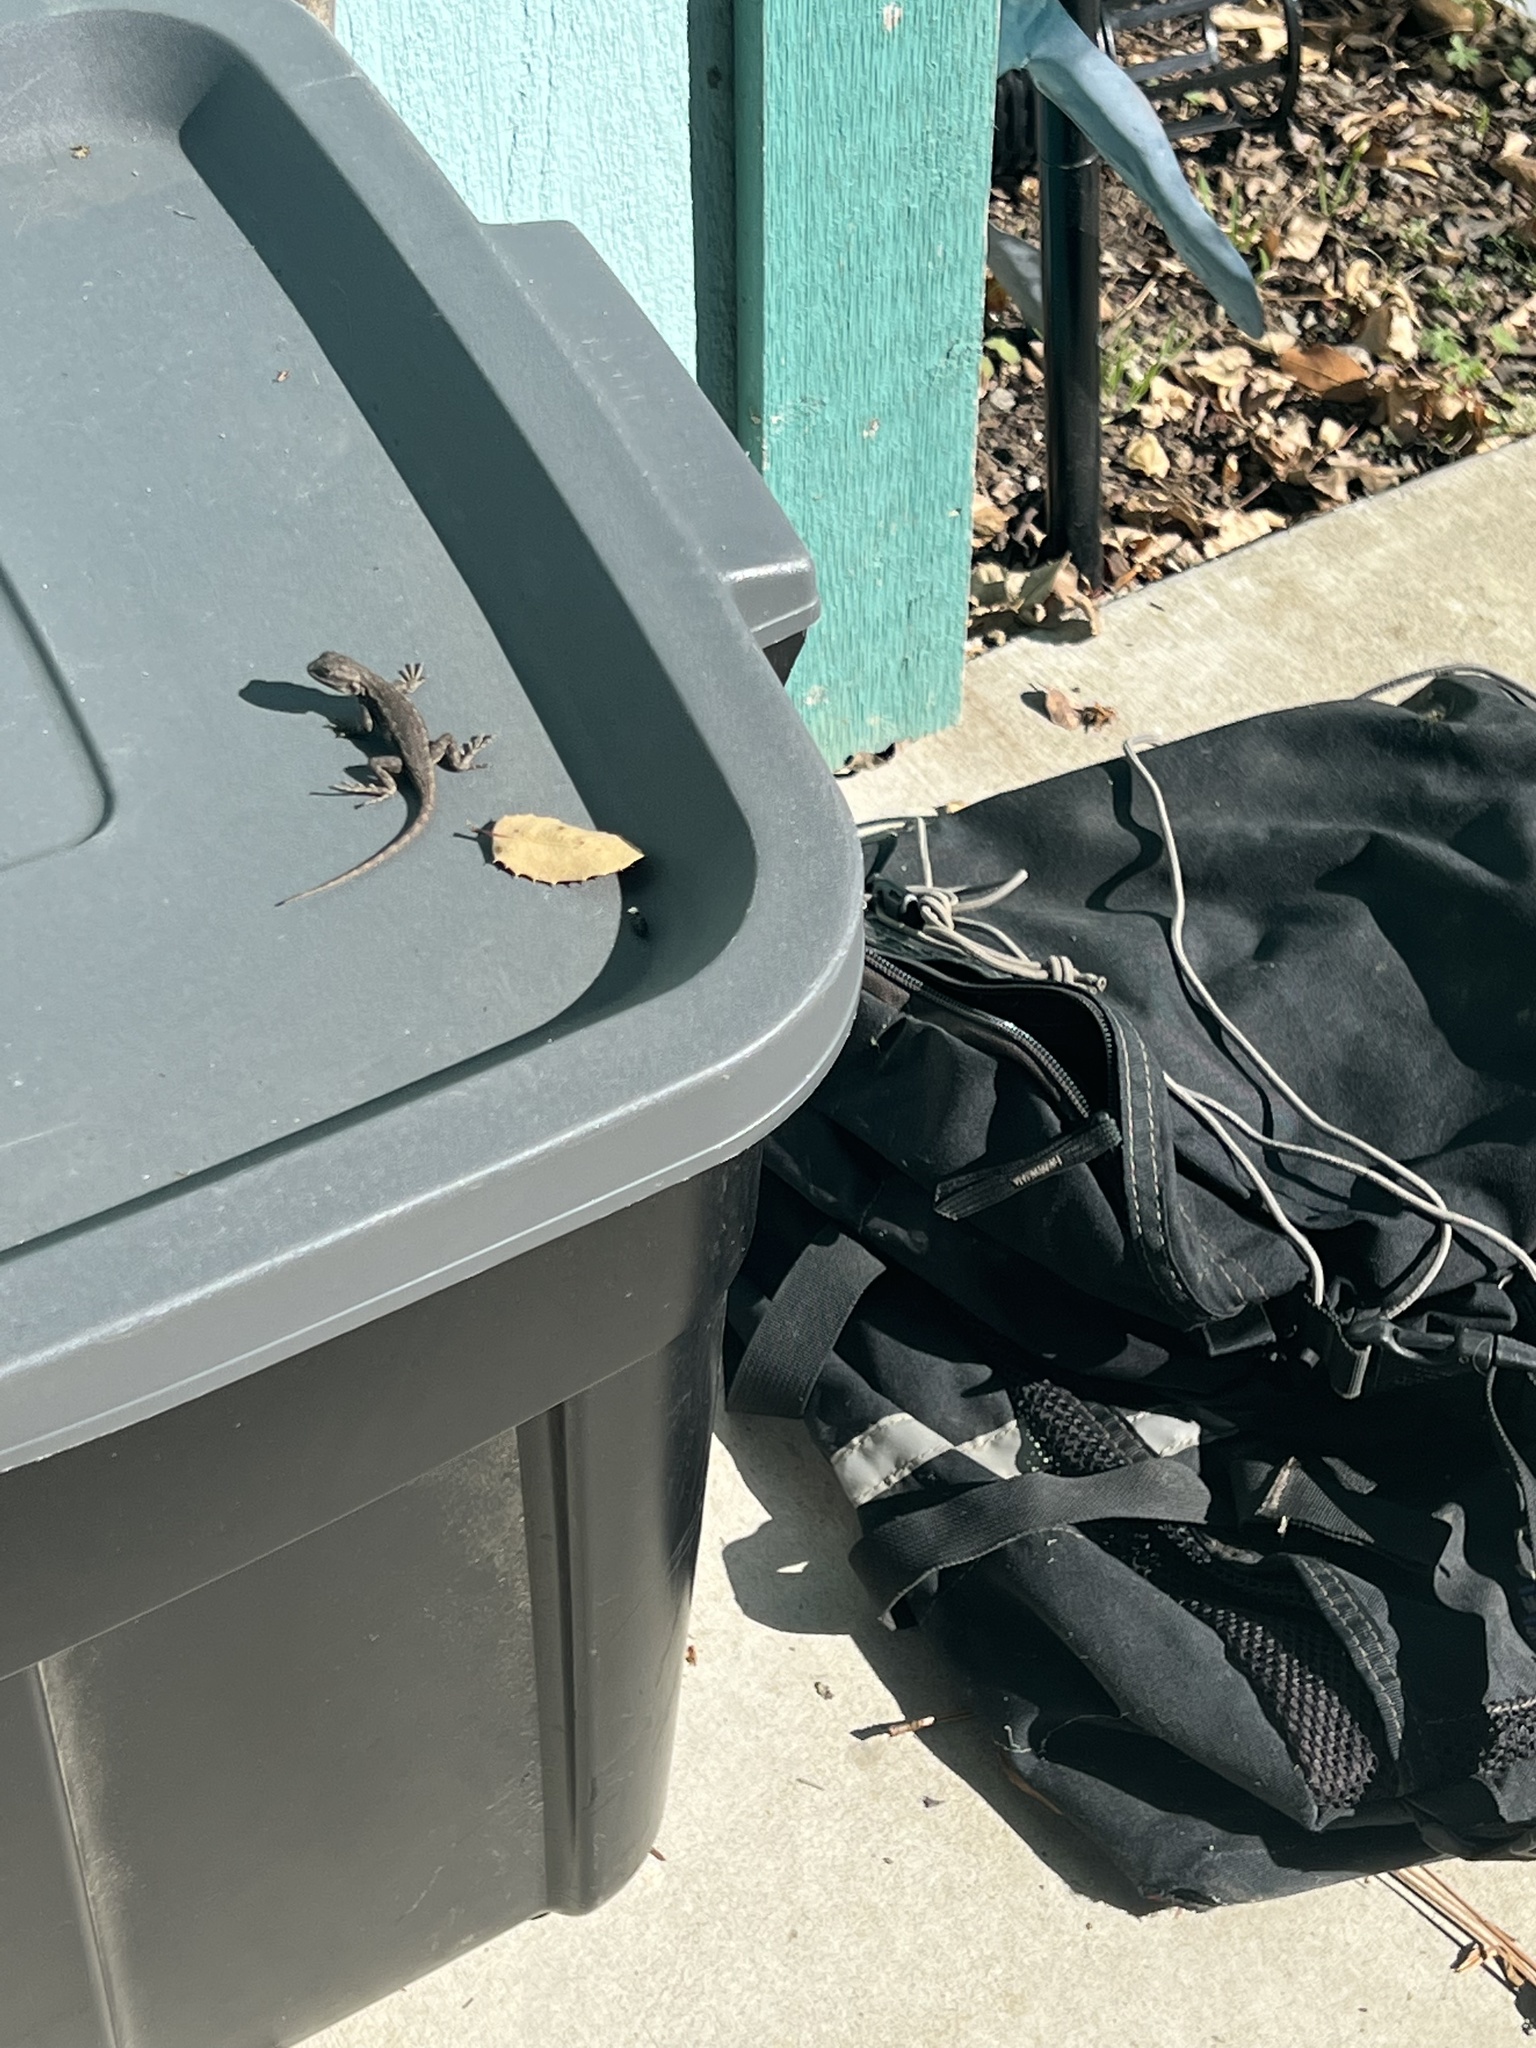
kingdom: Animalia
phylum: Chordata
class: Squamata
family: Phrynosomatidae
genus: Sceloporus
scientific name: Sceloporus occidentalis
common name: Western fence lizard
